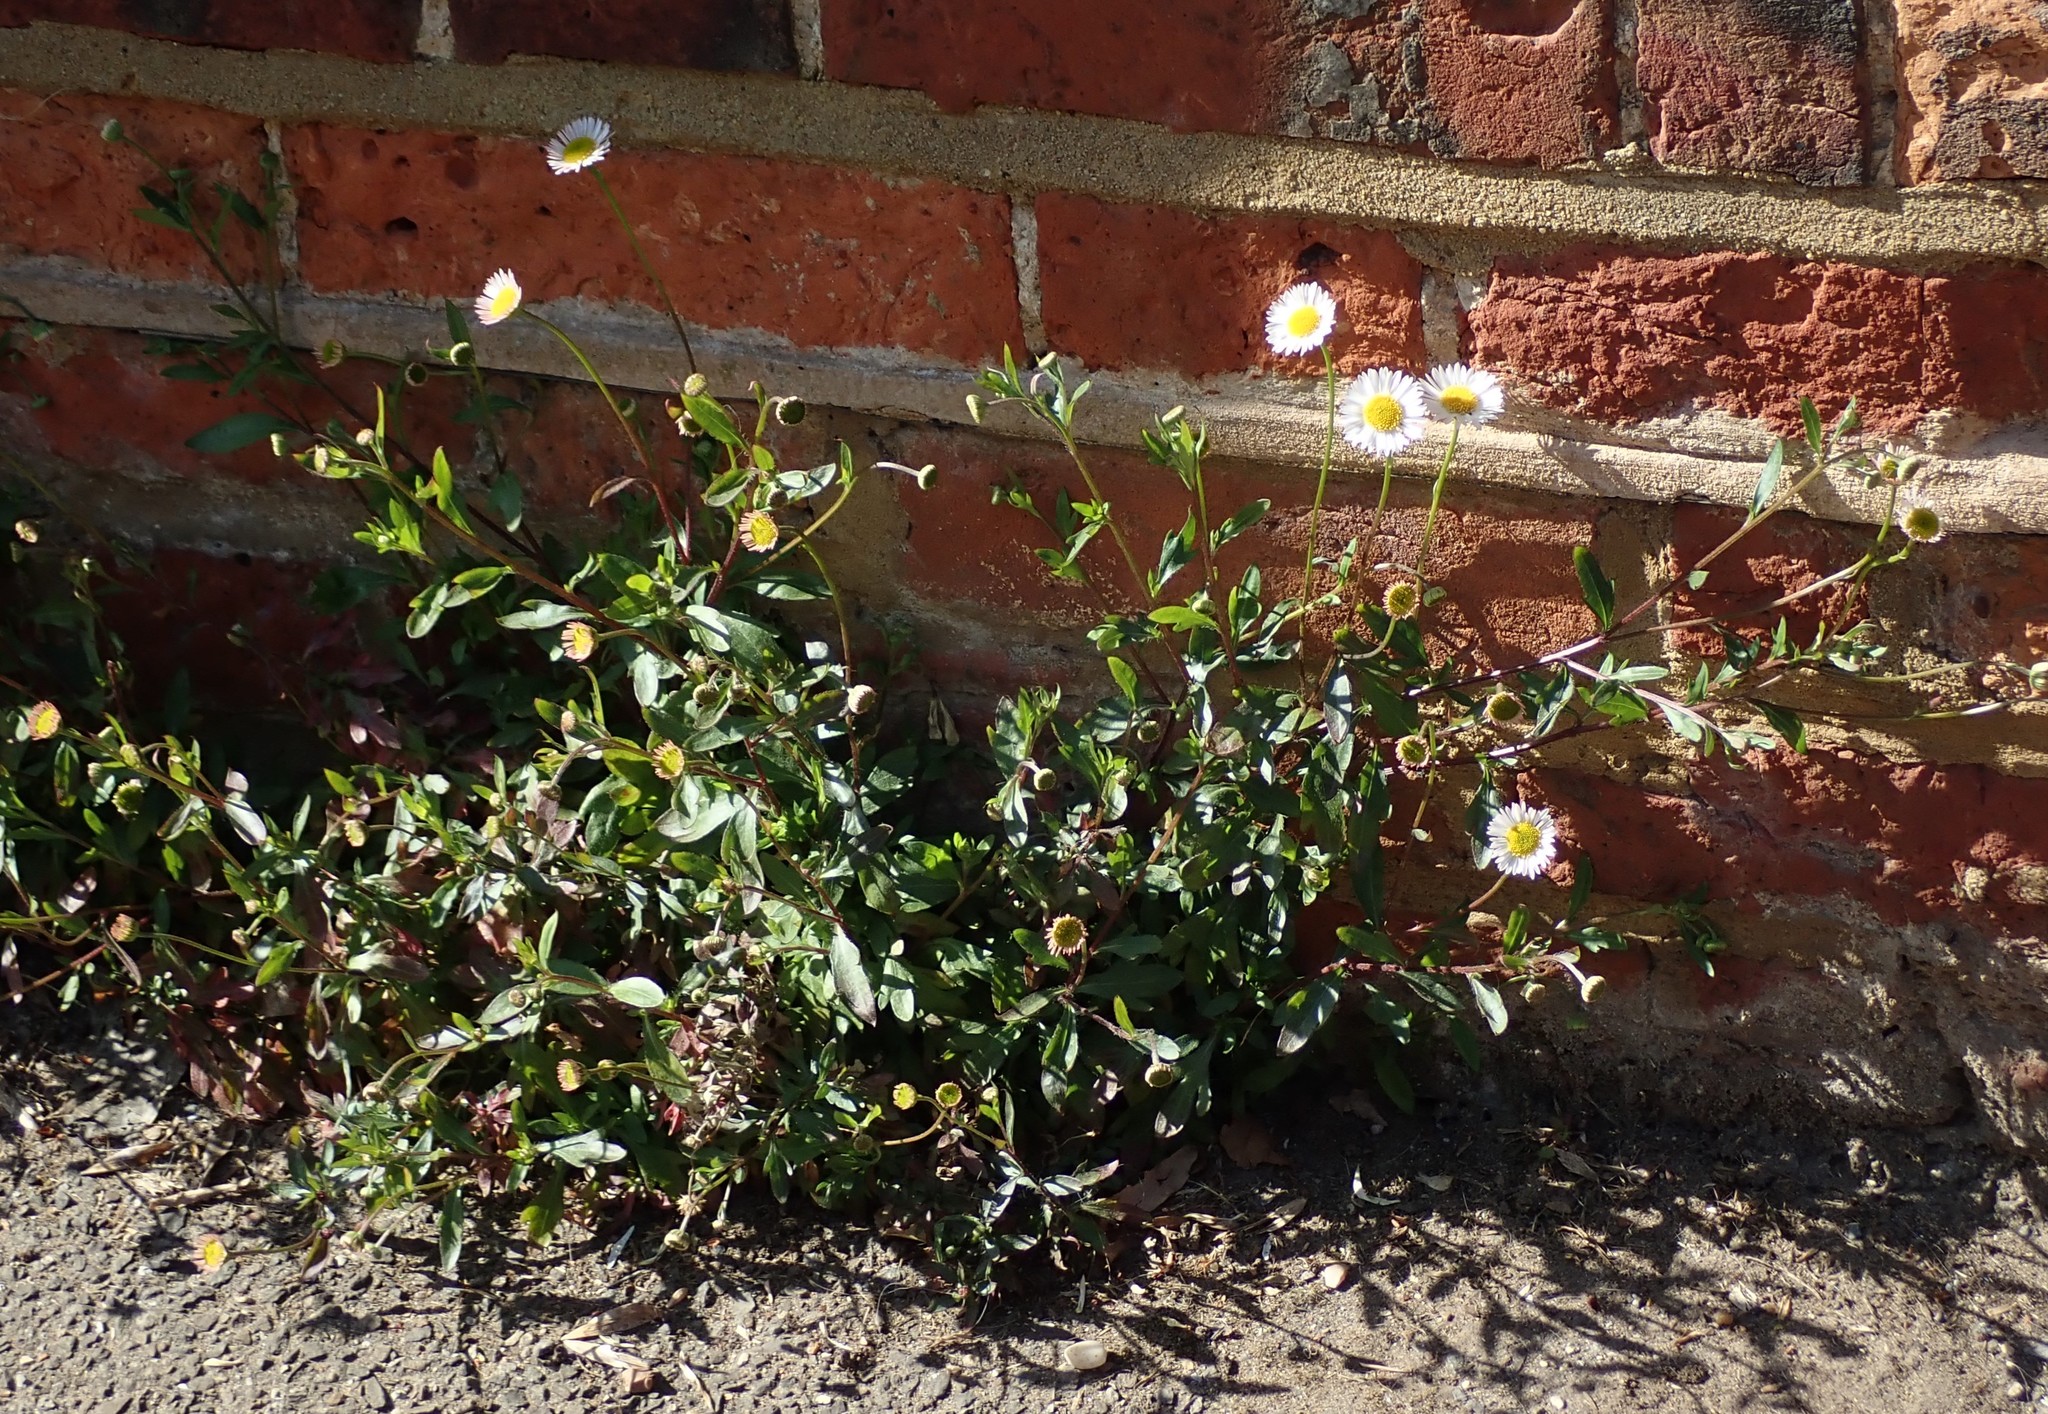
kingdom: Plantae
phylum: Tracheophyta
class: Magnoliopsida
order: Asterales
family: Asteraceae
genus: Erigeron
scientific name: Erigeron karvinskianus
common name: Mexican fleabane
